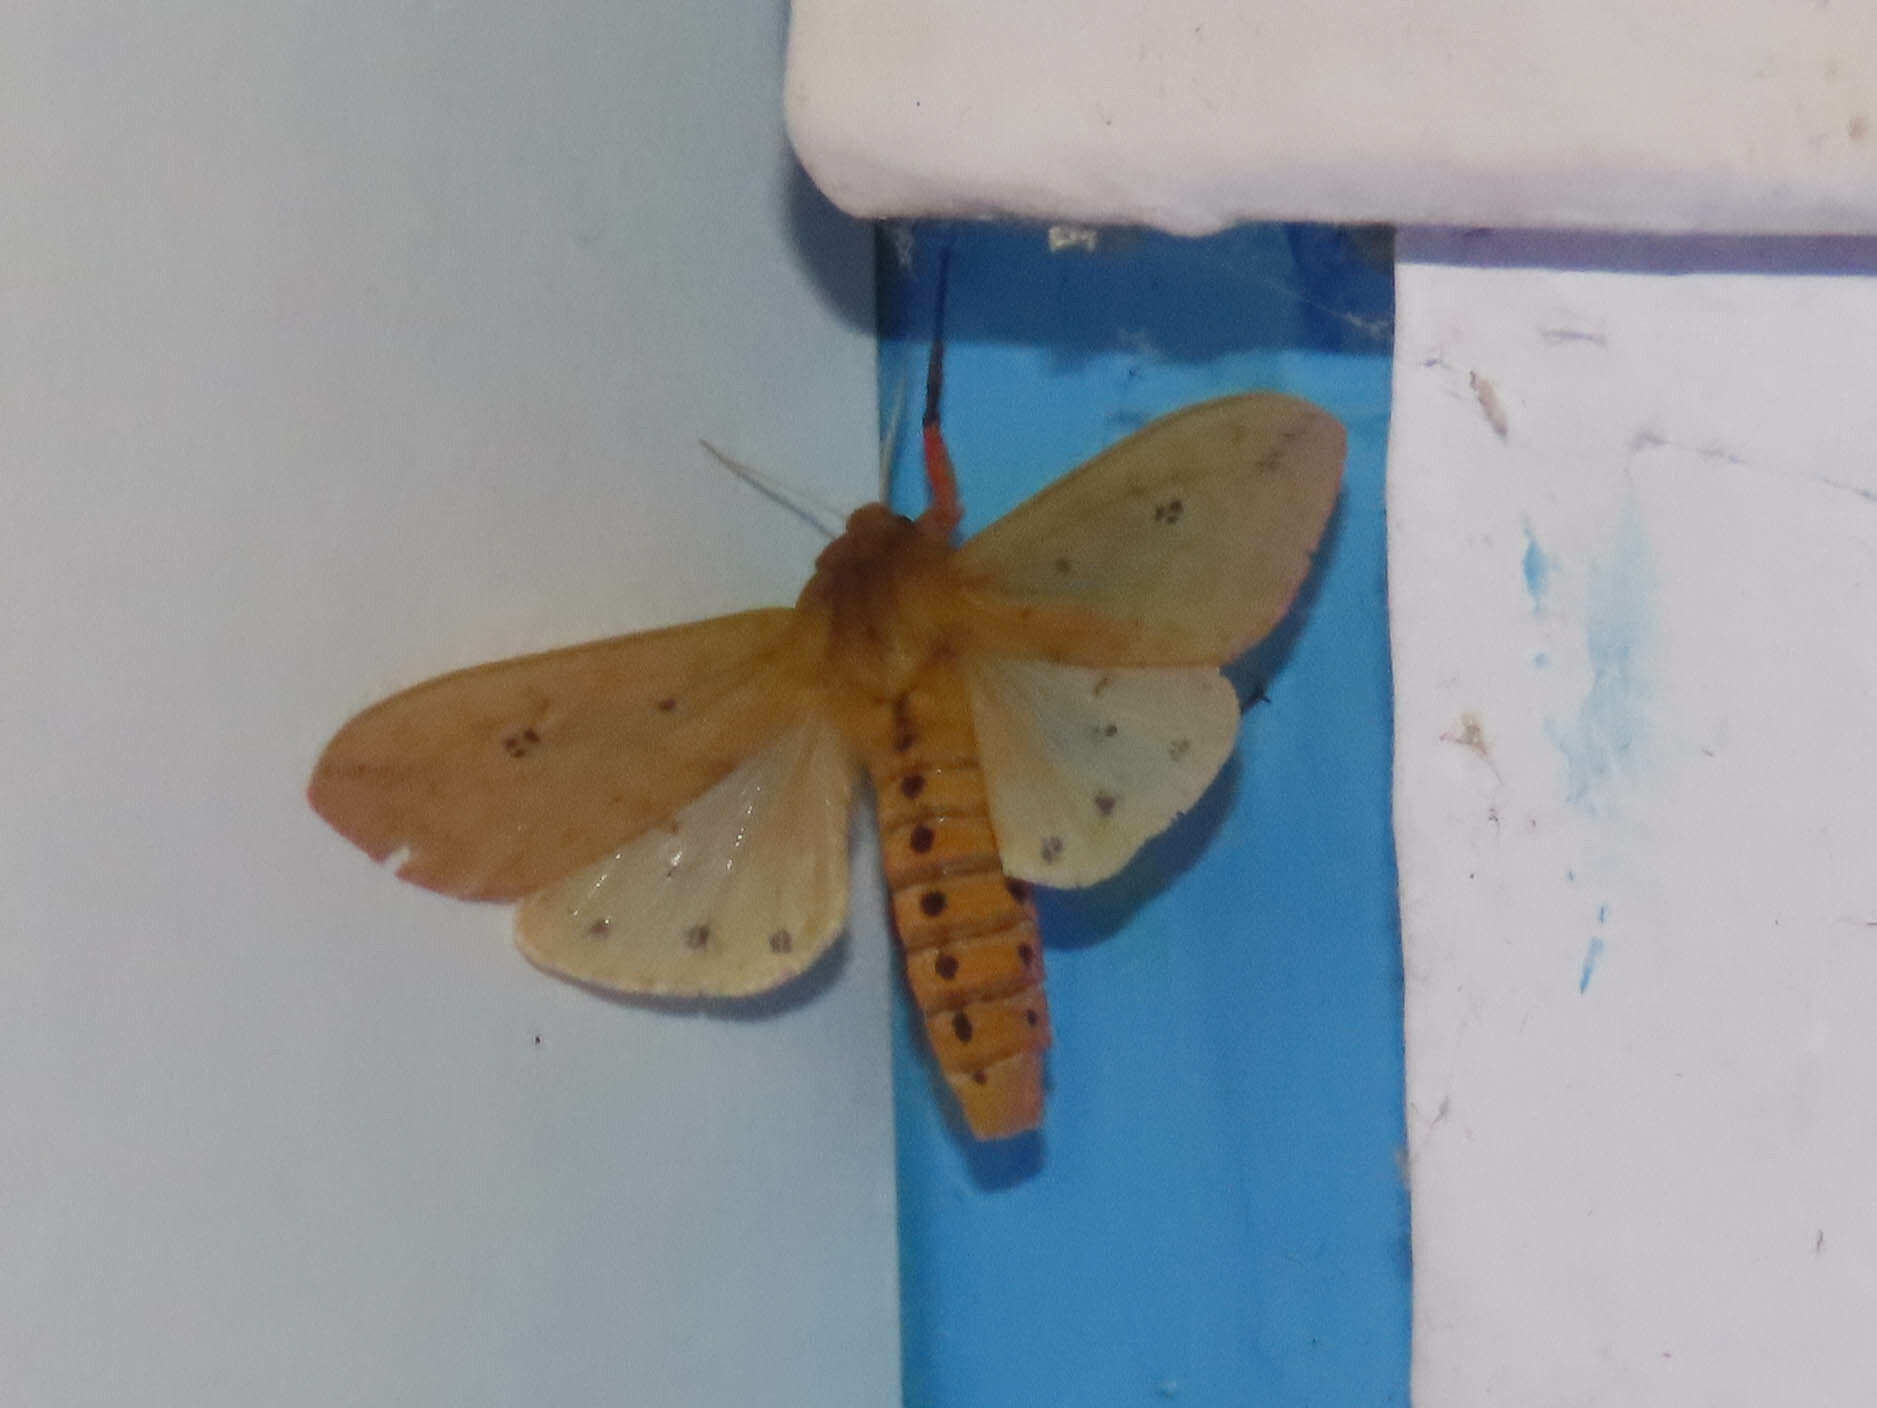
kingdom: Animalia
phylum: Arthropoda
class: Insecta
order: Lepidoptera
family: Erebidae
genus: Pyrrharctia
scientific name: Pyrrharctia isabella
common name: Isabella tiger moth
